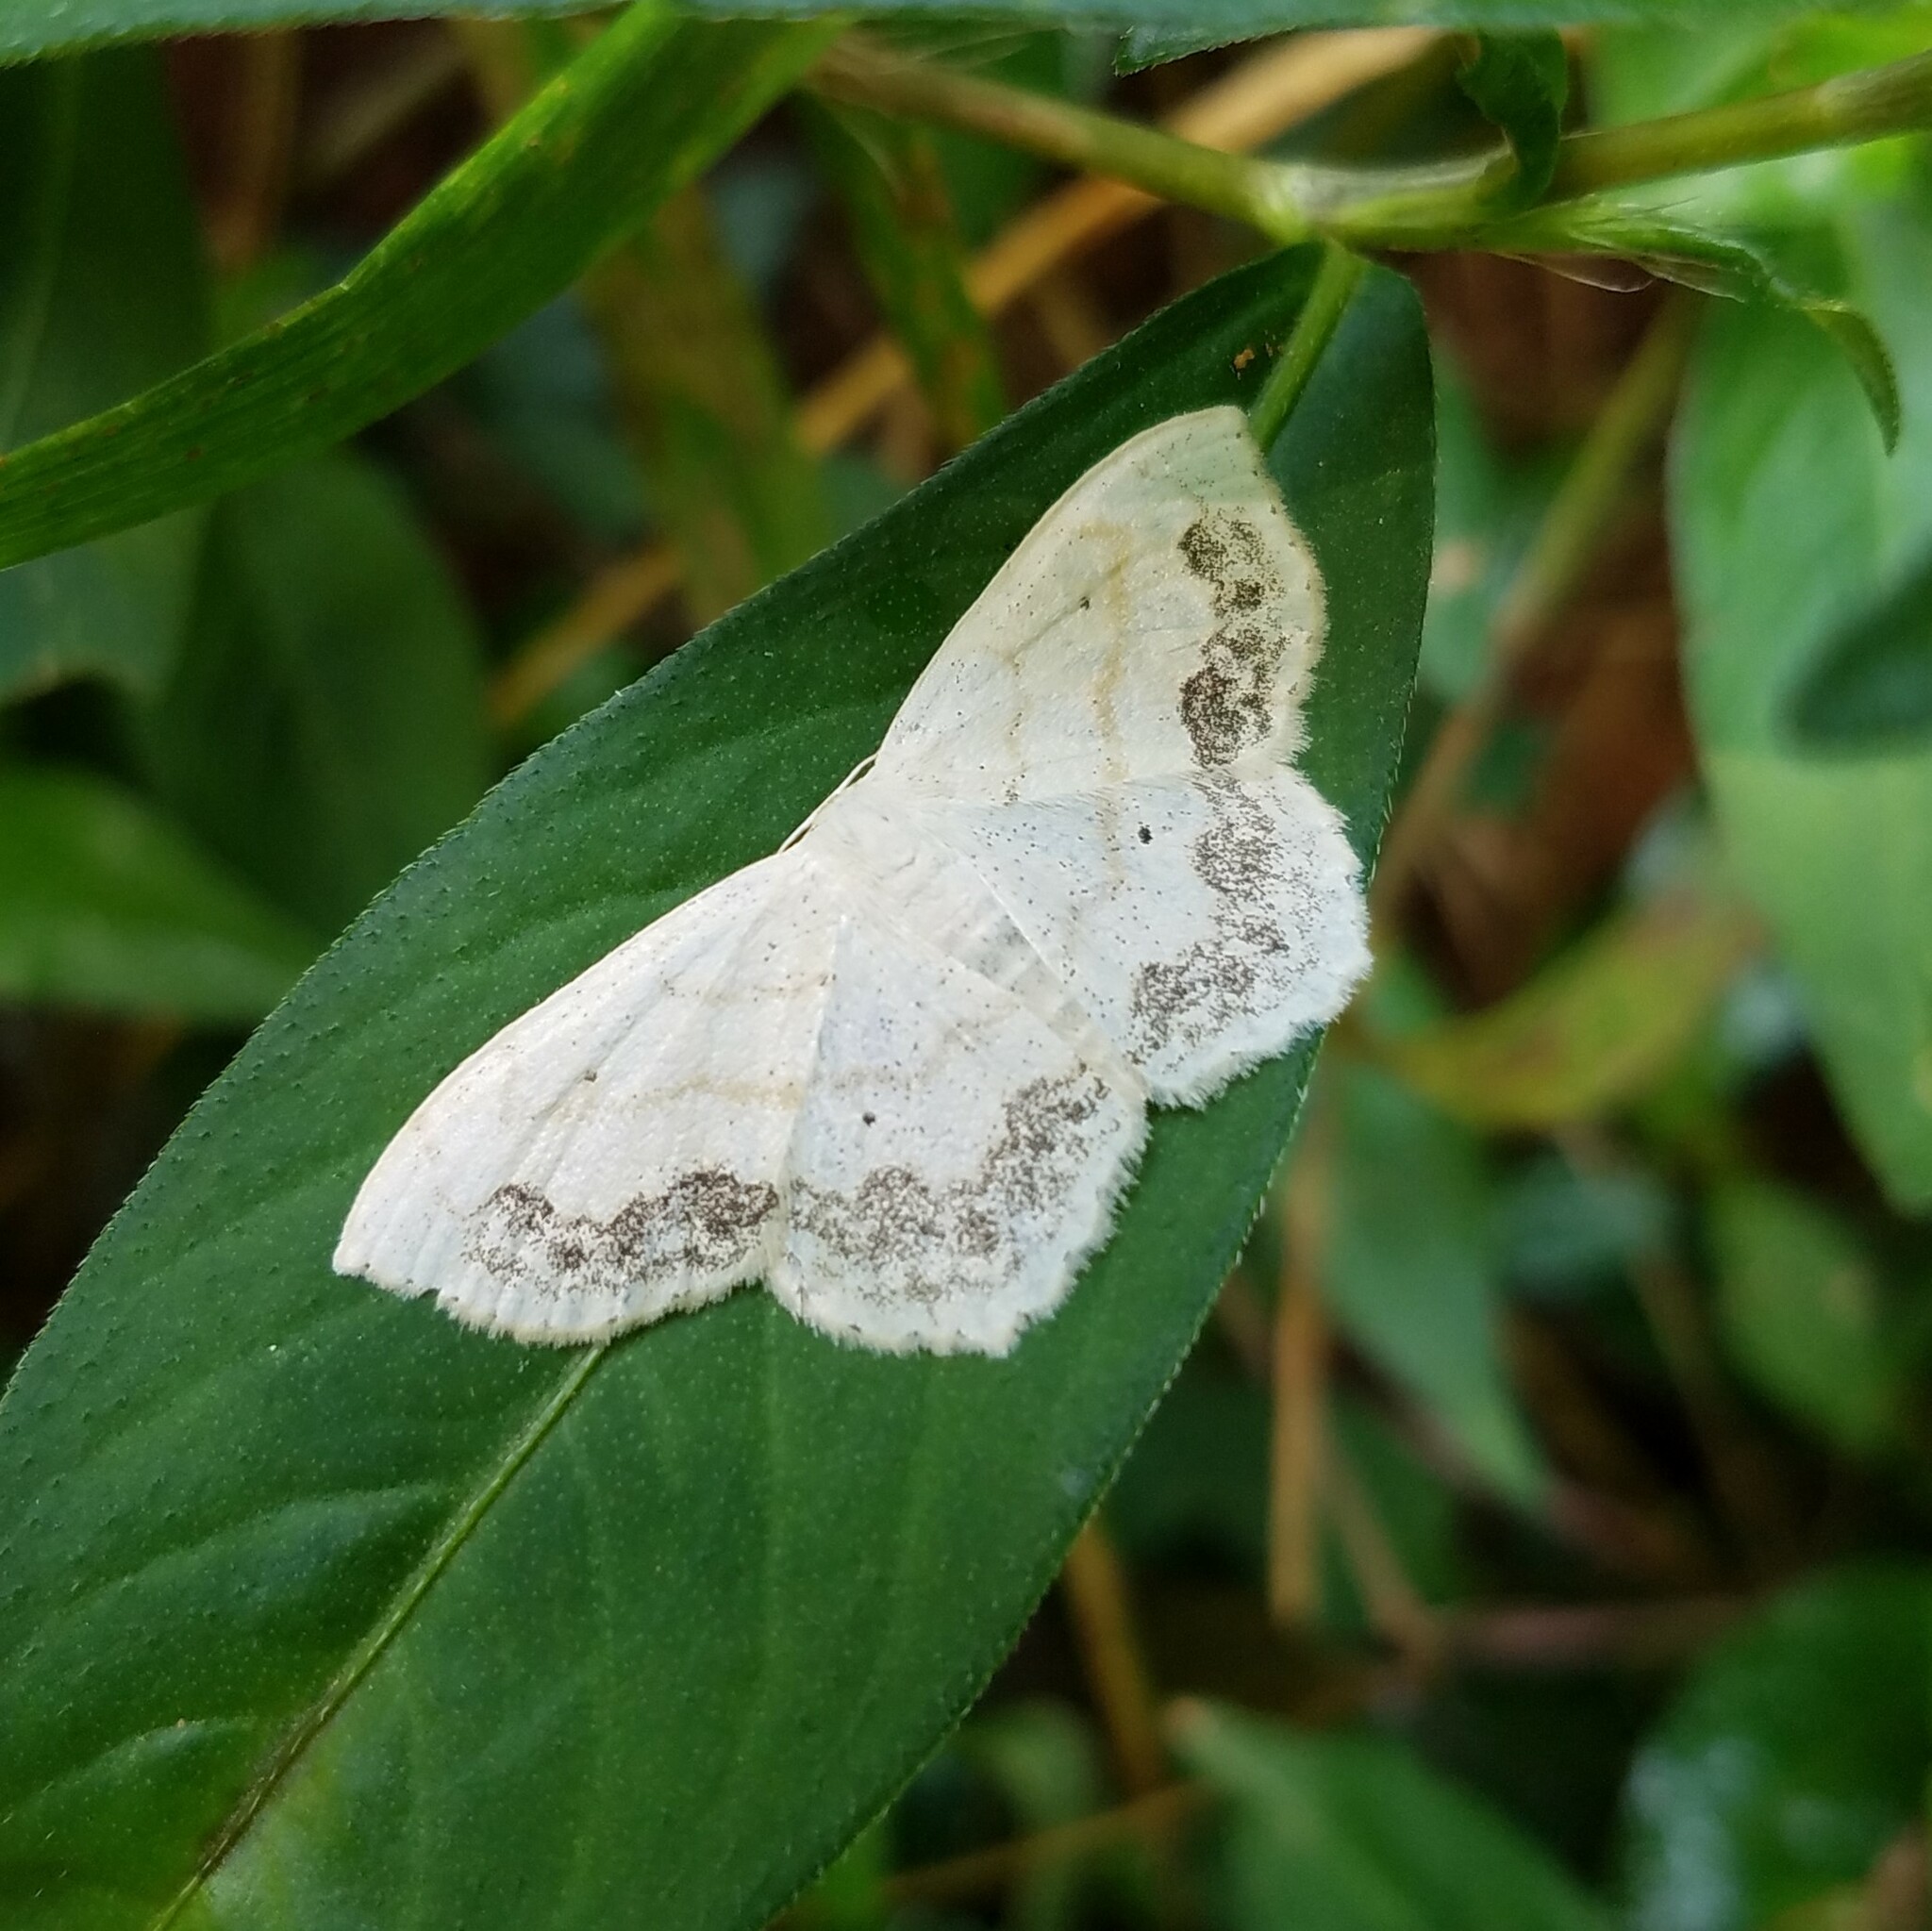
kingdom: Animalia
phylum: Arthropoda
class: Insecta
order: Lepidoptera
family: Geometridae
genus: Scopula
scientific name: Scopula limboundata
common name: Large lace border
